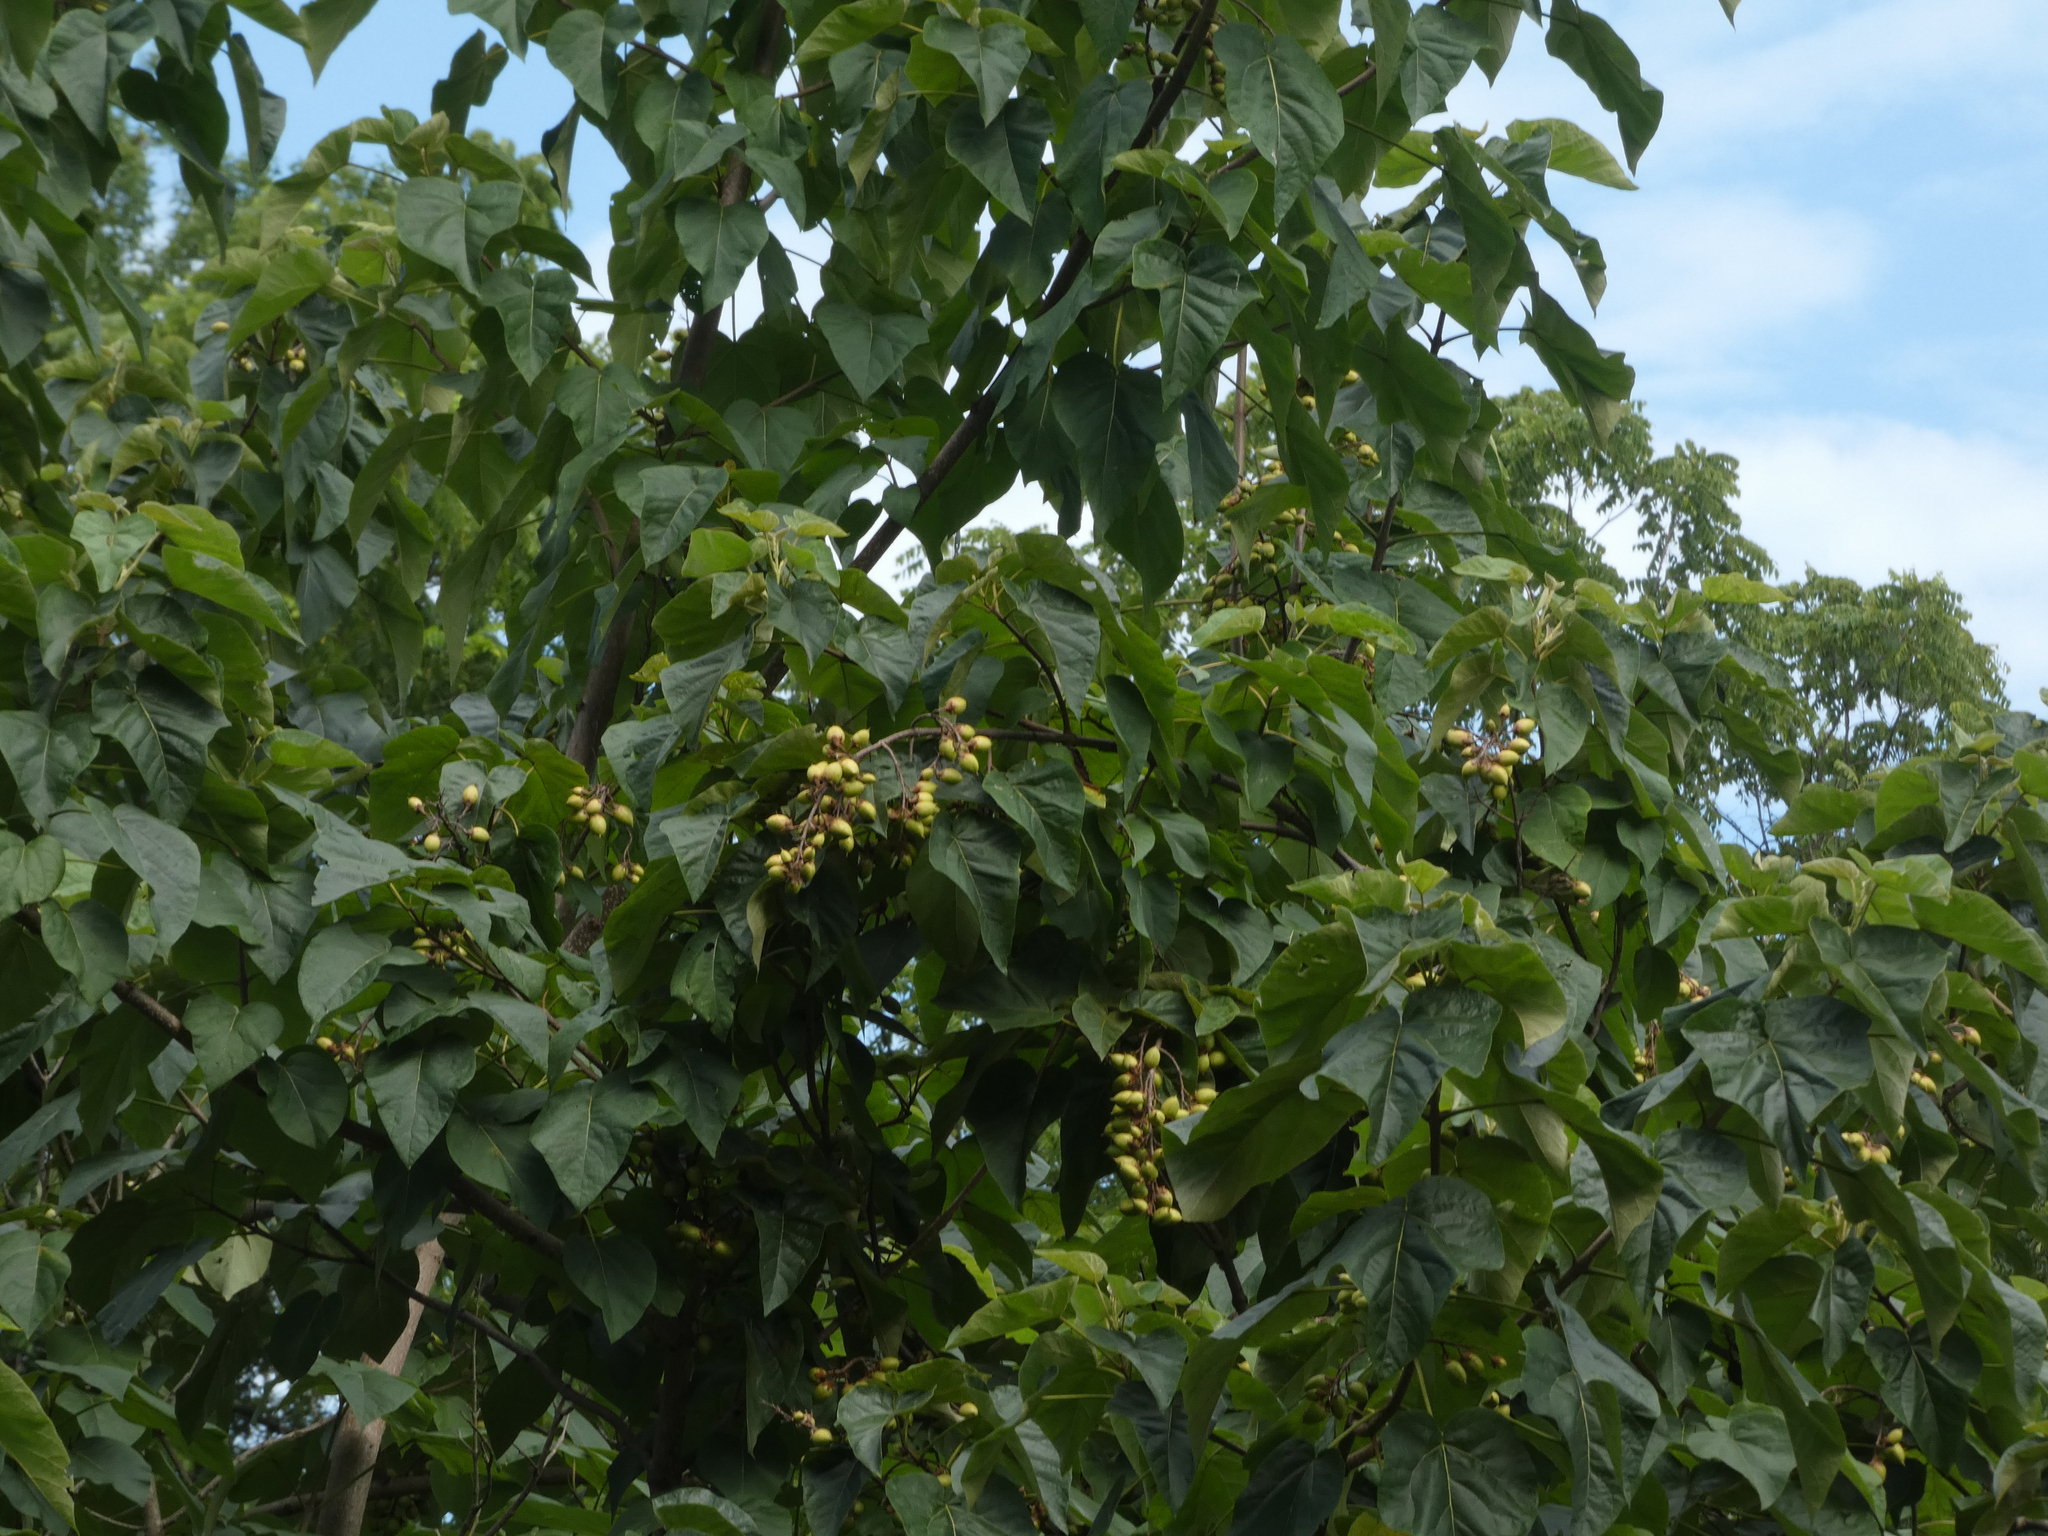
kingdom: Plantae
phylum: Tracheophyta
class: Magnoliopsida
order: Lamiales
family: Paulowniaceae
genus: Paulownia
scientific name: Paulownia tomentosa
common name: Foxglove-tree
